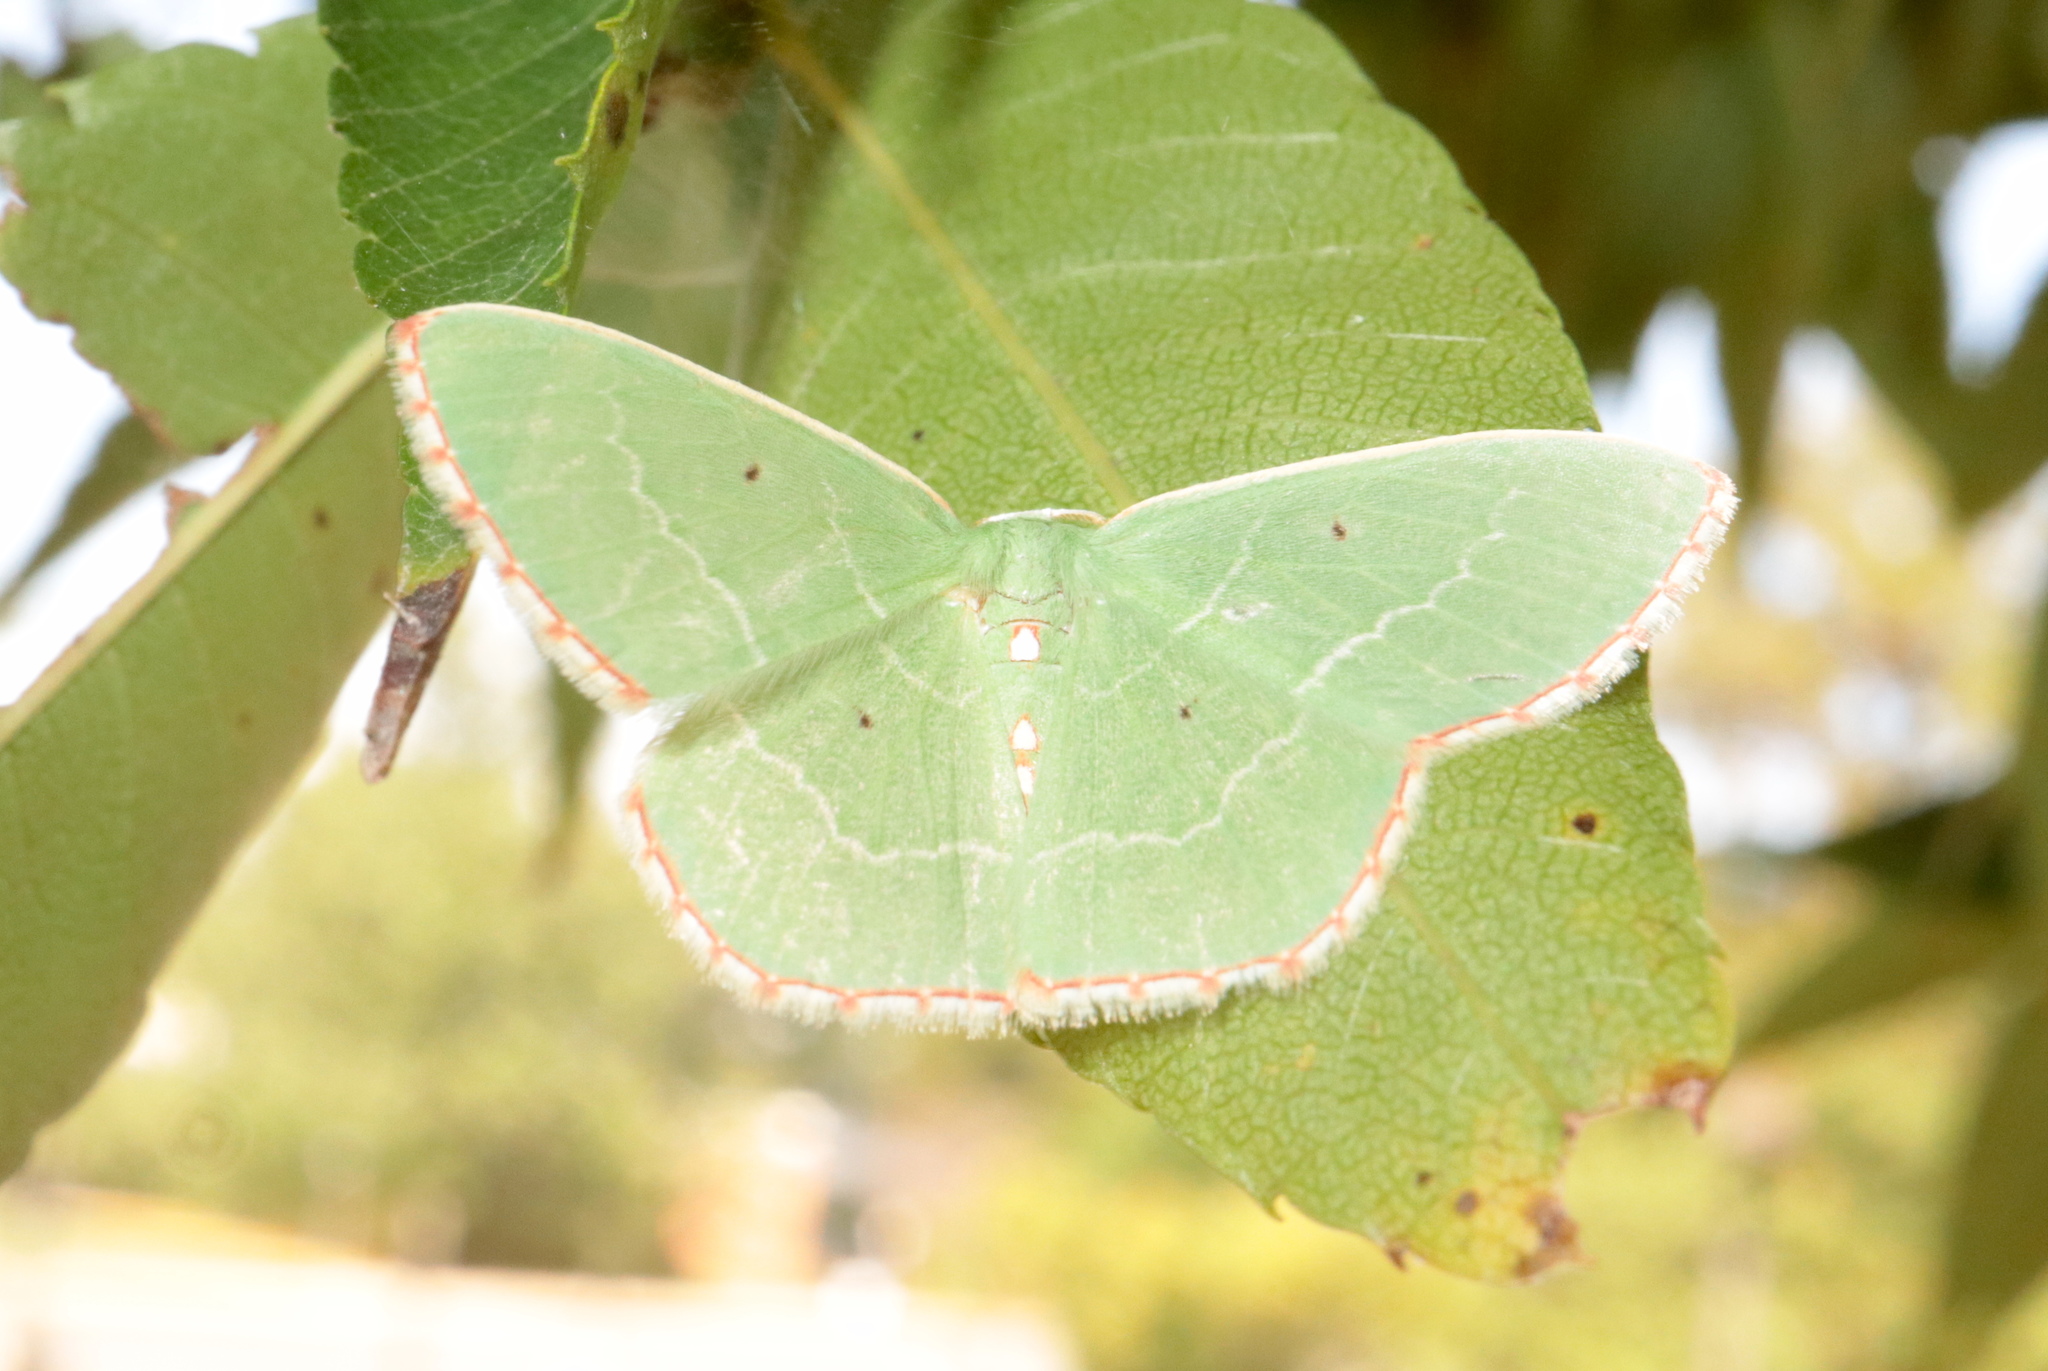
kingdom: Animalia
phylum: Arthropoda
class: Insecta
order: Lepidoptera
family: Geometridae
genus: Nemoria
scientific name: Nemoria lixaria
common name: Red-bordered emerald
